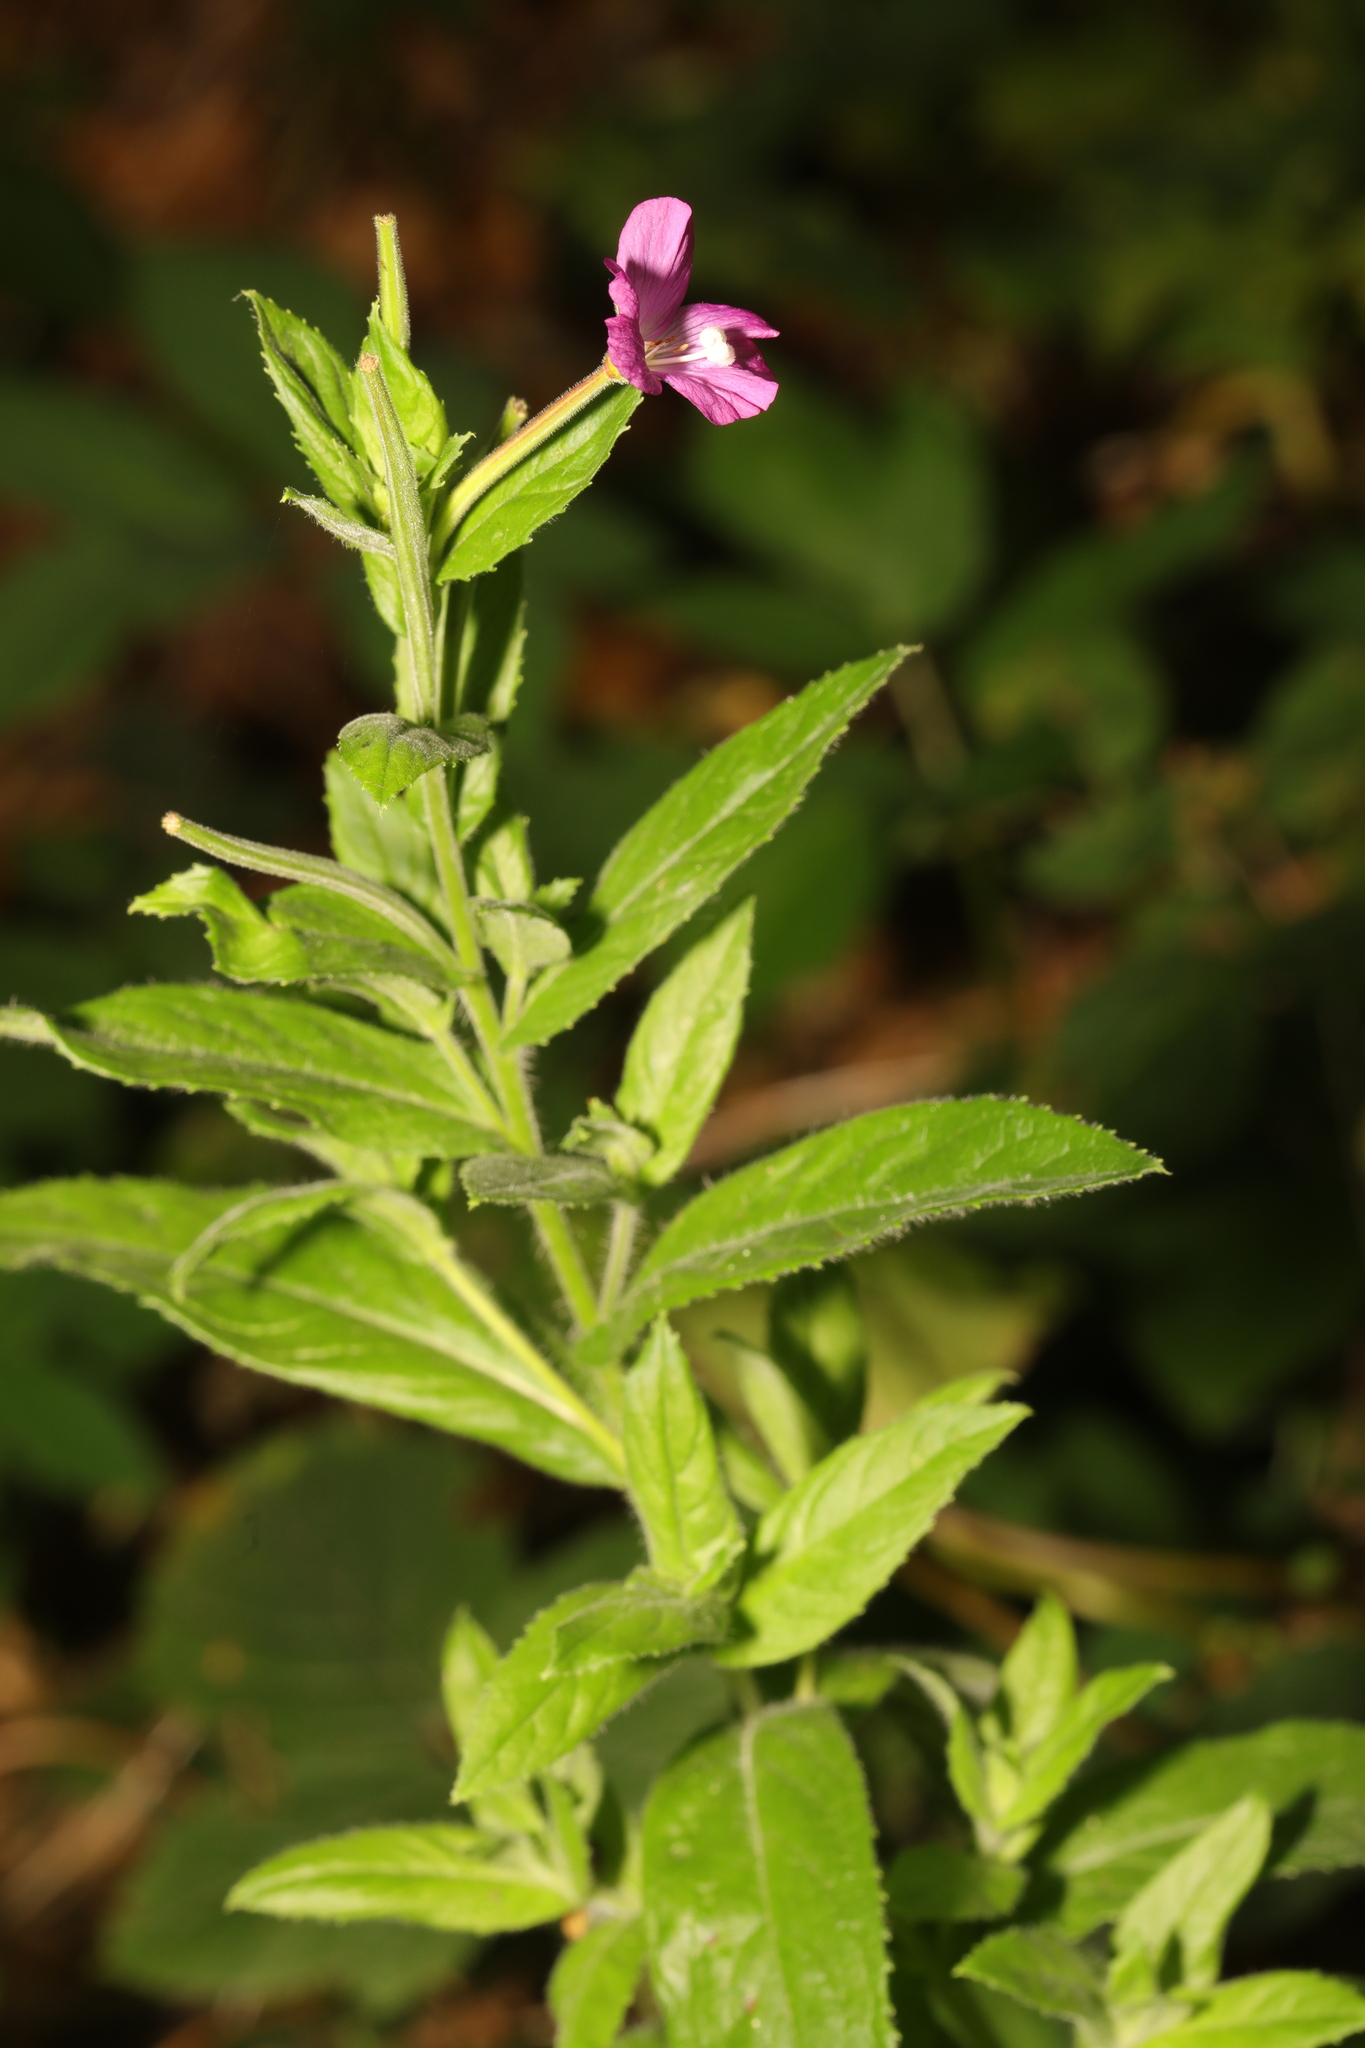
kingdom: Plantae
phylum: Tracheophyta
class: Magnoliopsida
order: Myrtales
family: Onagraceae
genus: Epilobium
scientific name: Epilobium hirsutum
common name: Great willowherb
